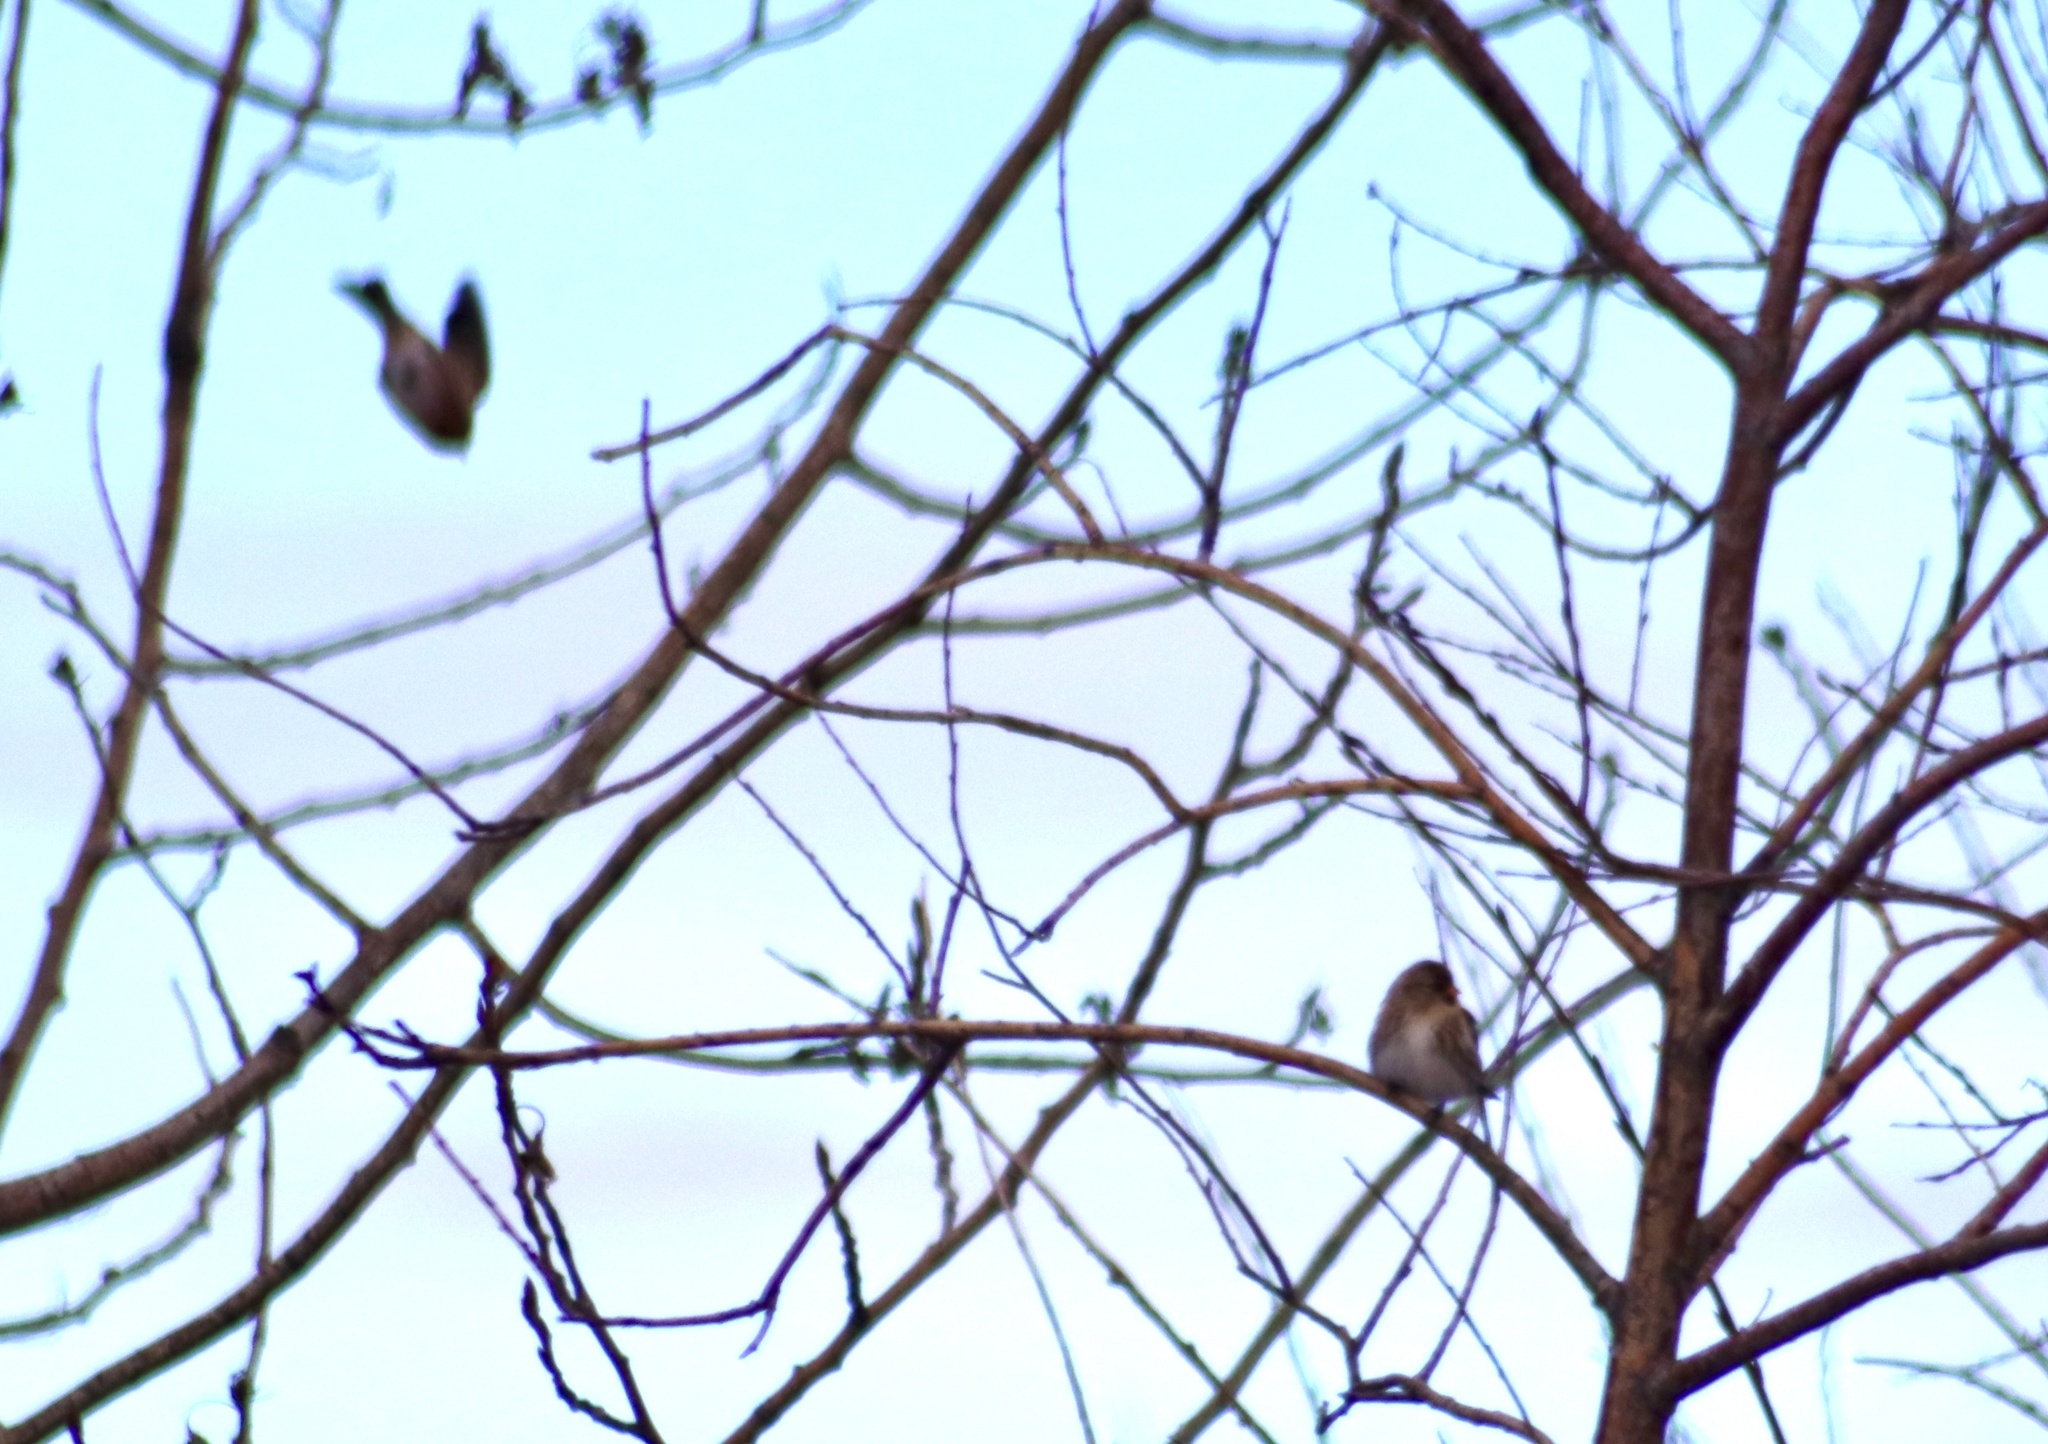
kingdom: Animalia
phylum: Chordata
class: Aves
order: Passeriformes
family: Fringillidae
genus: Acanthis
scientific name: Acanthis flammea
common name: Common redpoll
